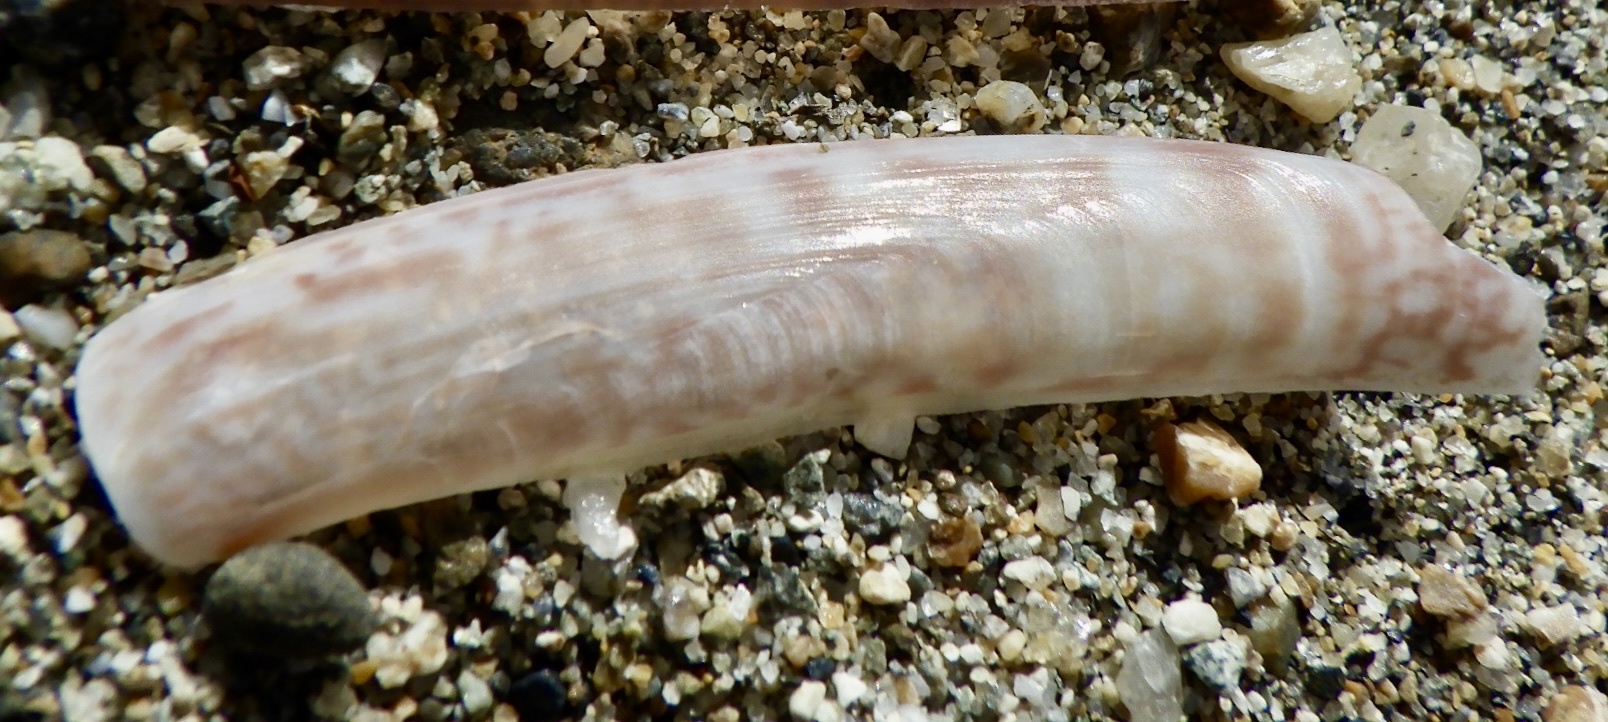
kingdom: Animalia
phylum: Mollusca
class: Bivalvia
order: Adapedonta
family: Solenidae
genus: Solen
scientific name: Solen roseomaculatus
